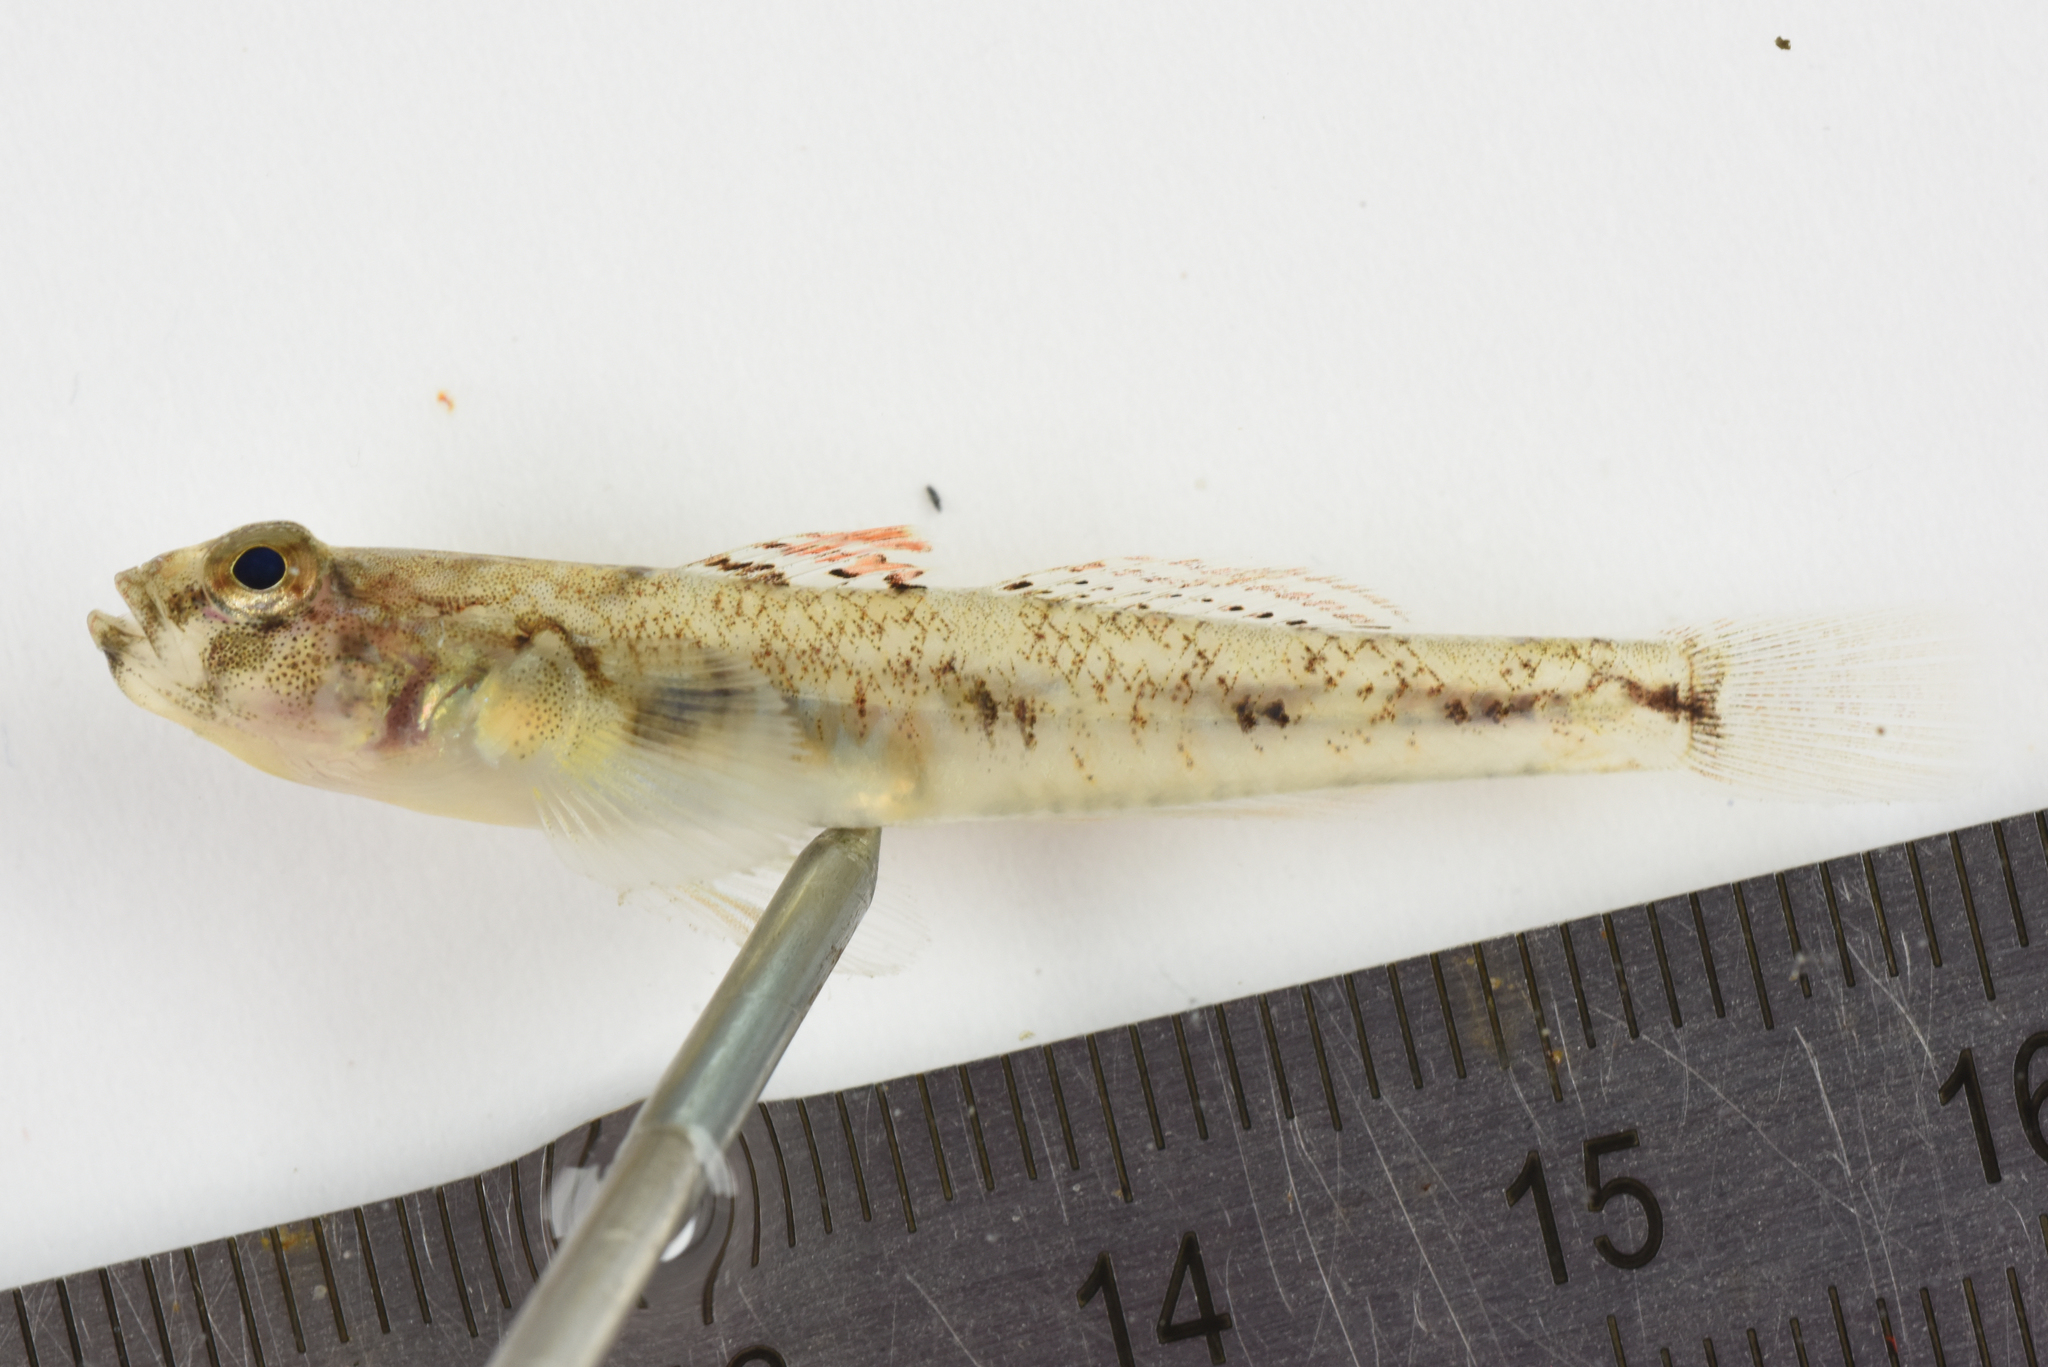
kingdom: Animalia
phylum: Chordata
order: Perciformes
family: Gobiidae
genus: Pomatoschistus
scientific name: Pomatoschistus pictus
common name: Painted goby
